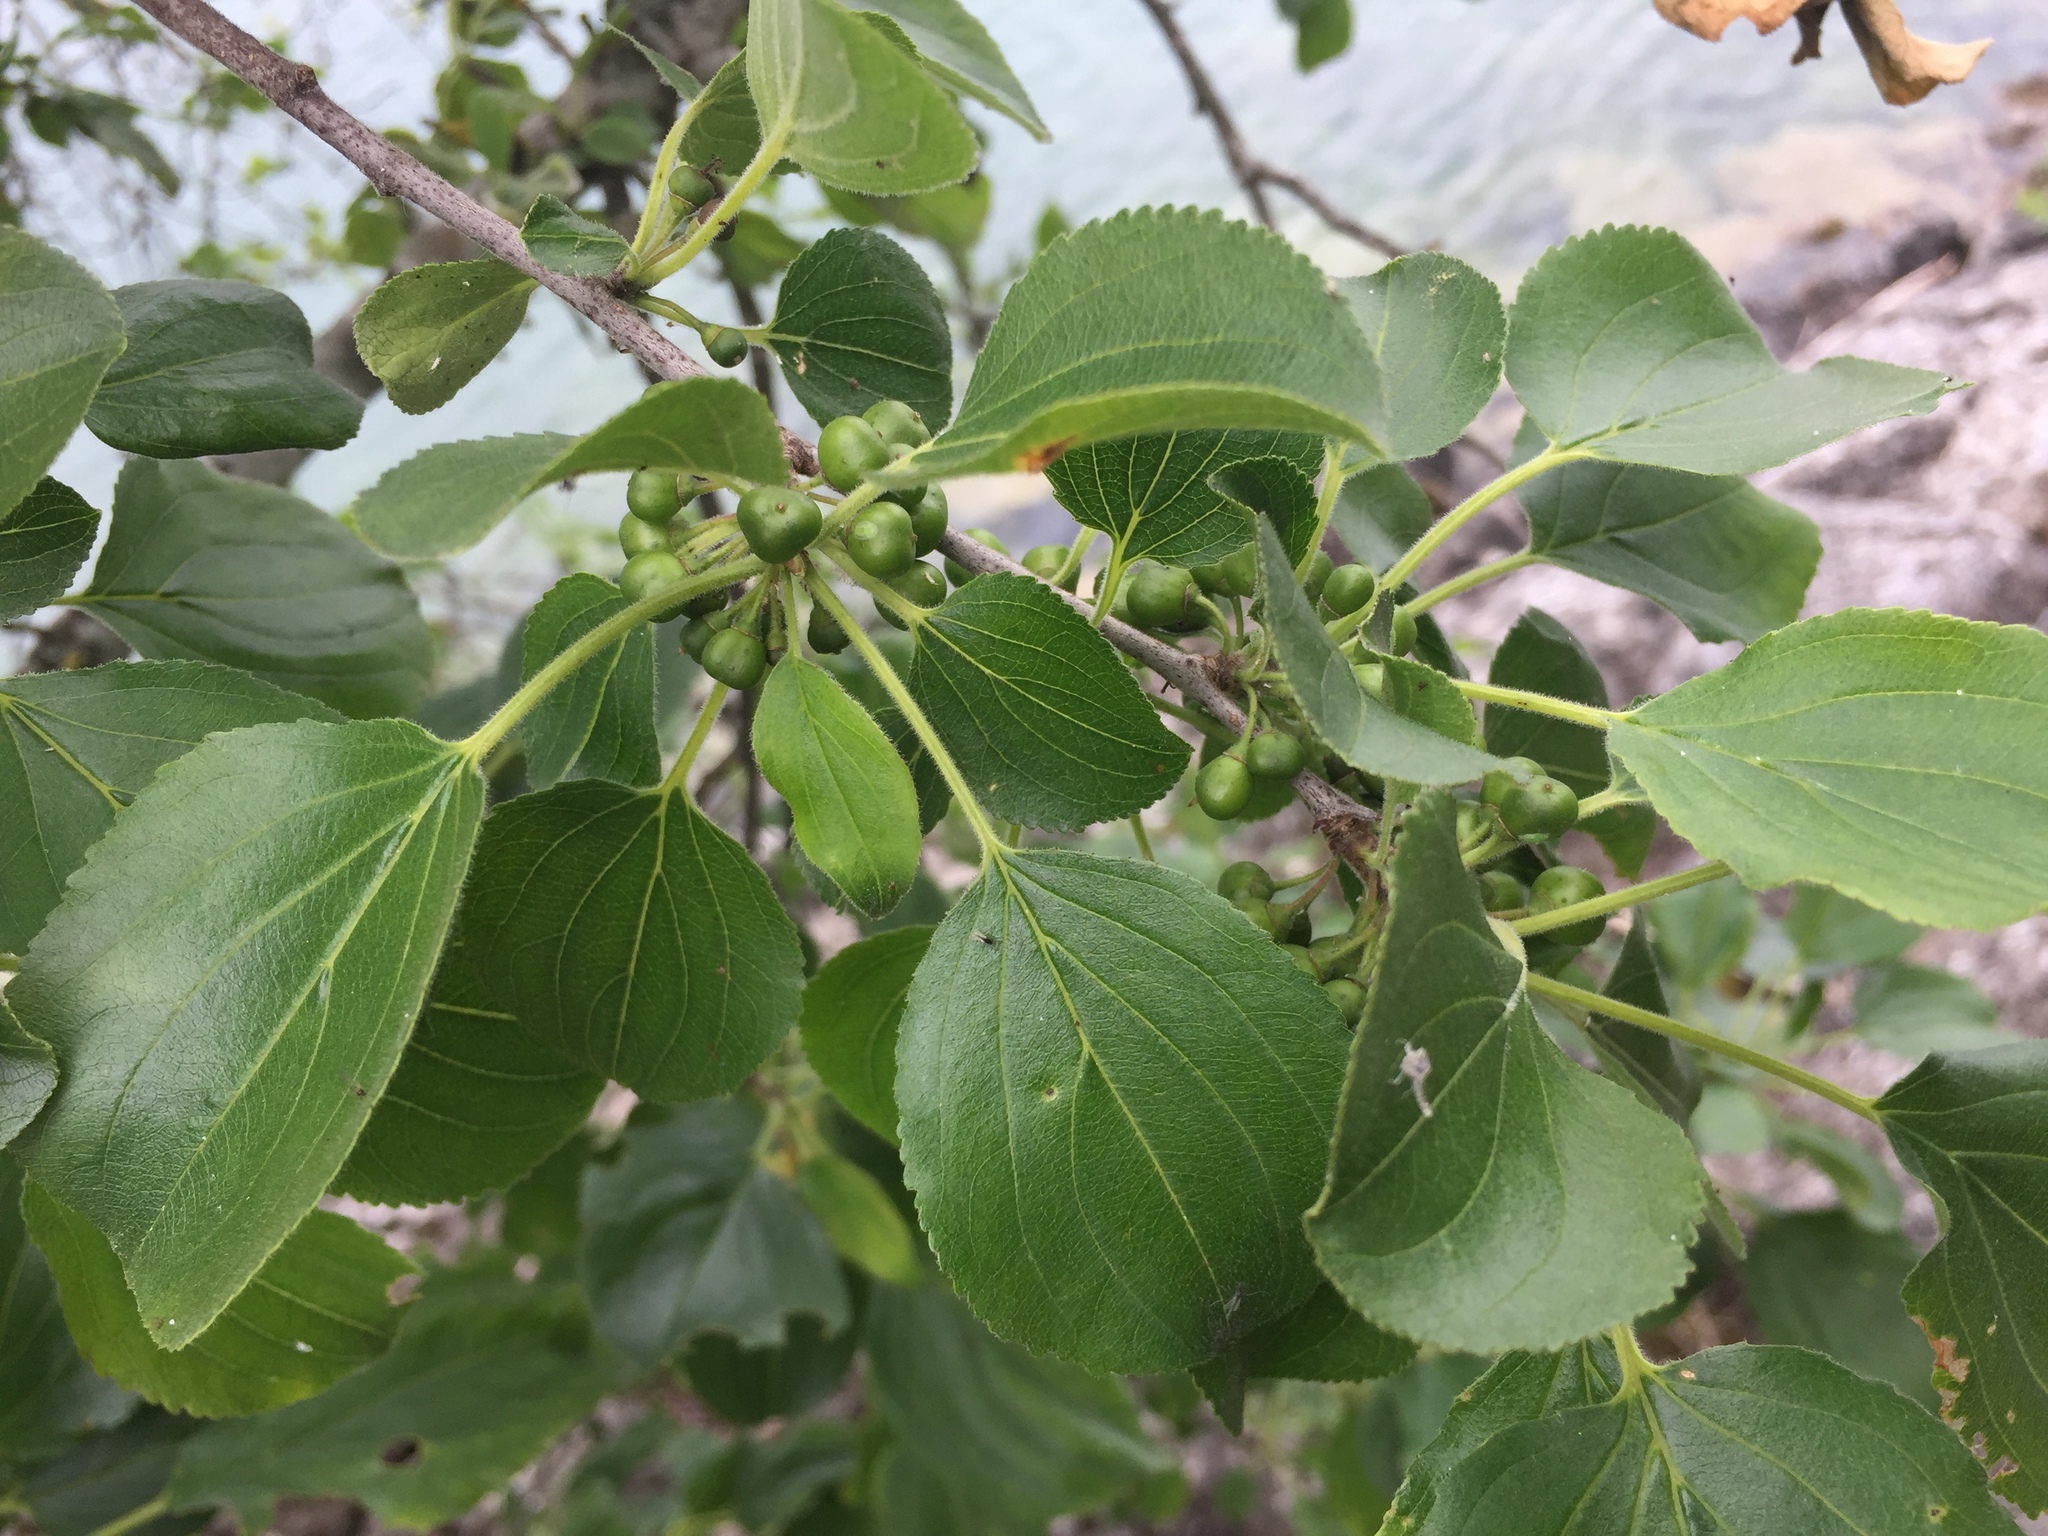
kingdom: Plantae
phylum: Tracheophyta
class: Magnoliopsida
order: Rosales
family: Rhamnaceae
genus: Rhamnus
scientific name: Rhamnus cathartica
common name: Common buckthorn
